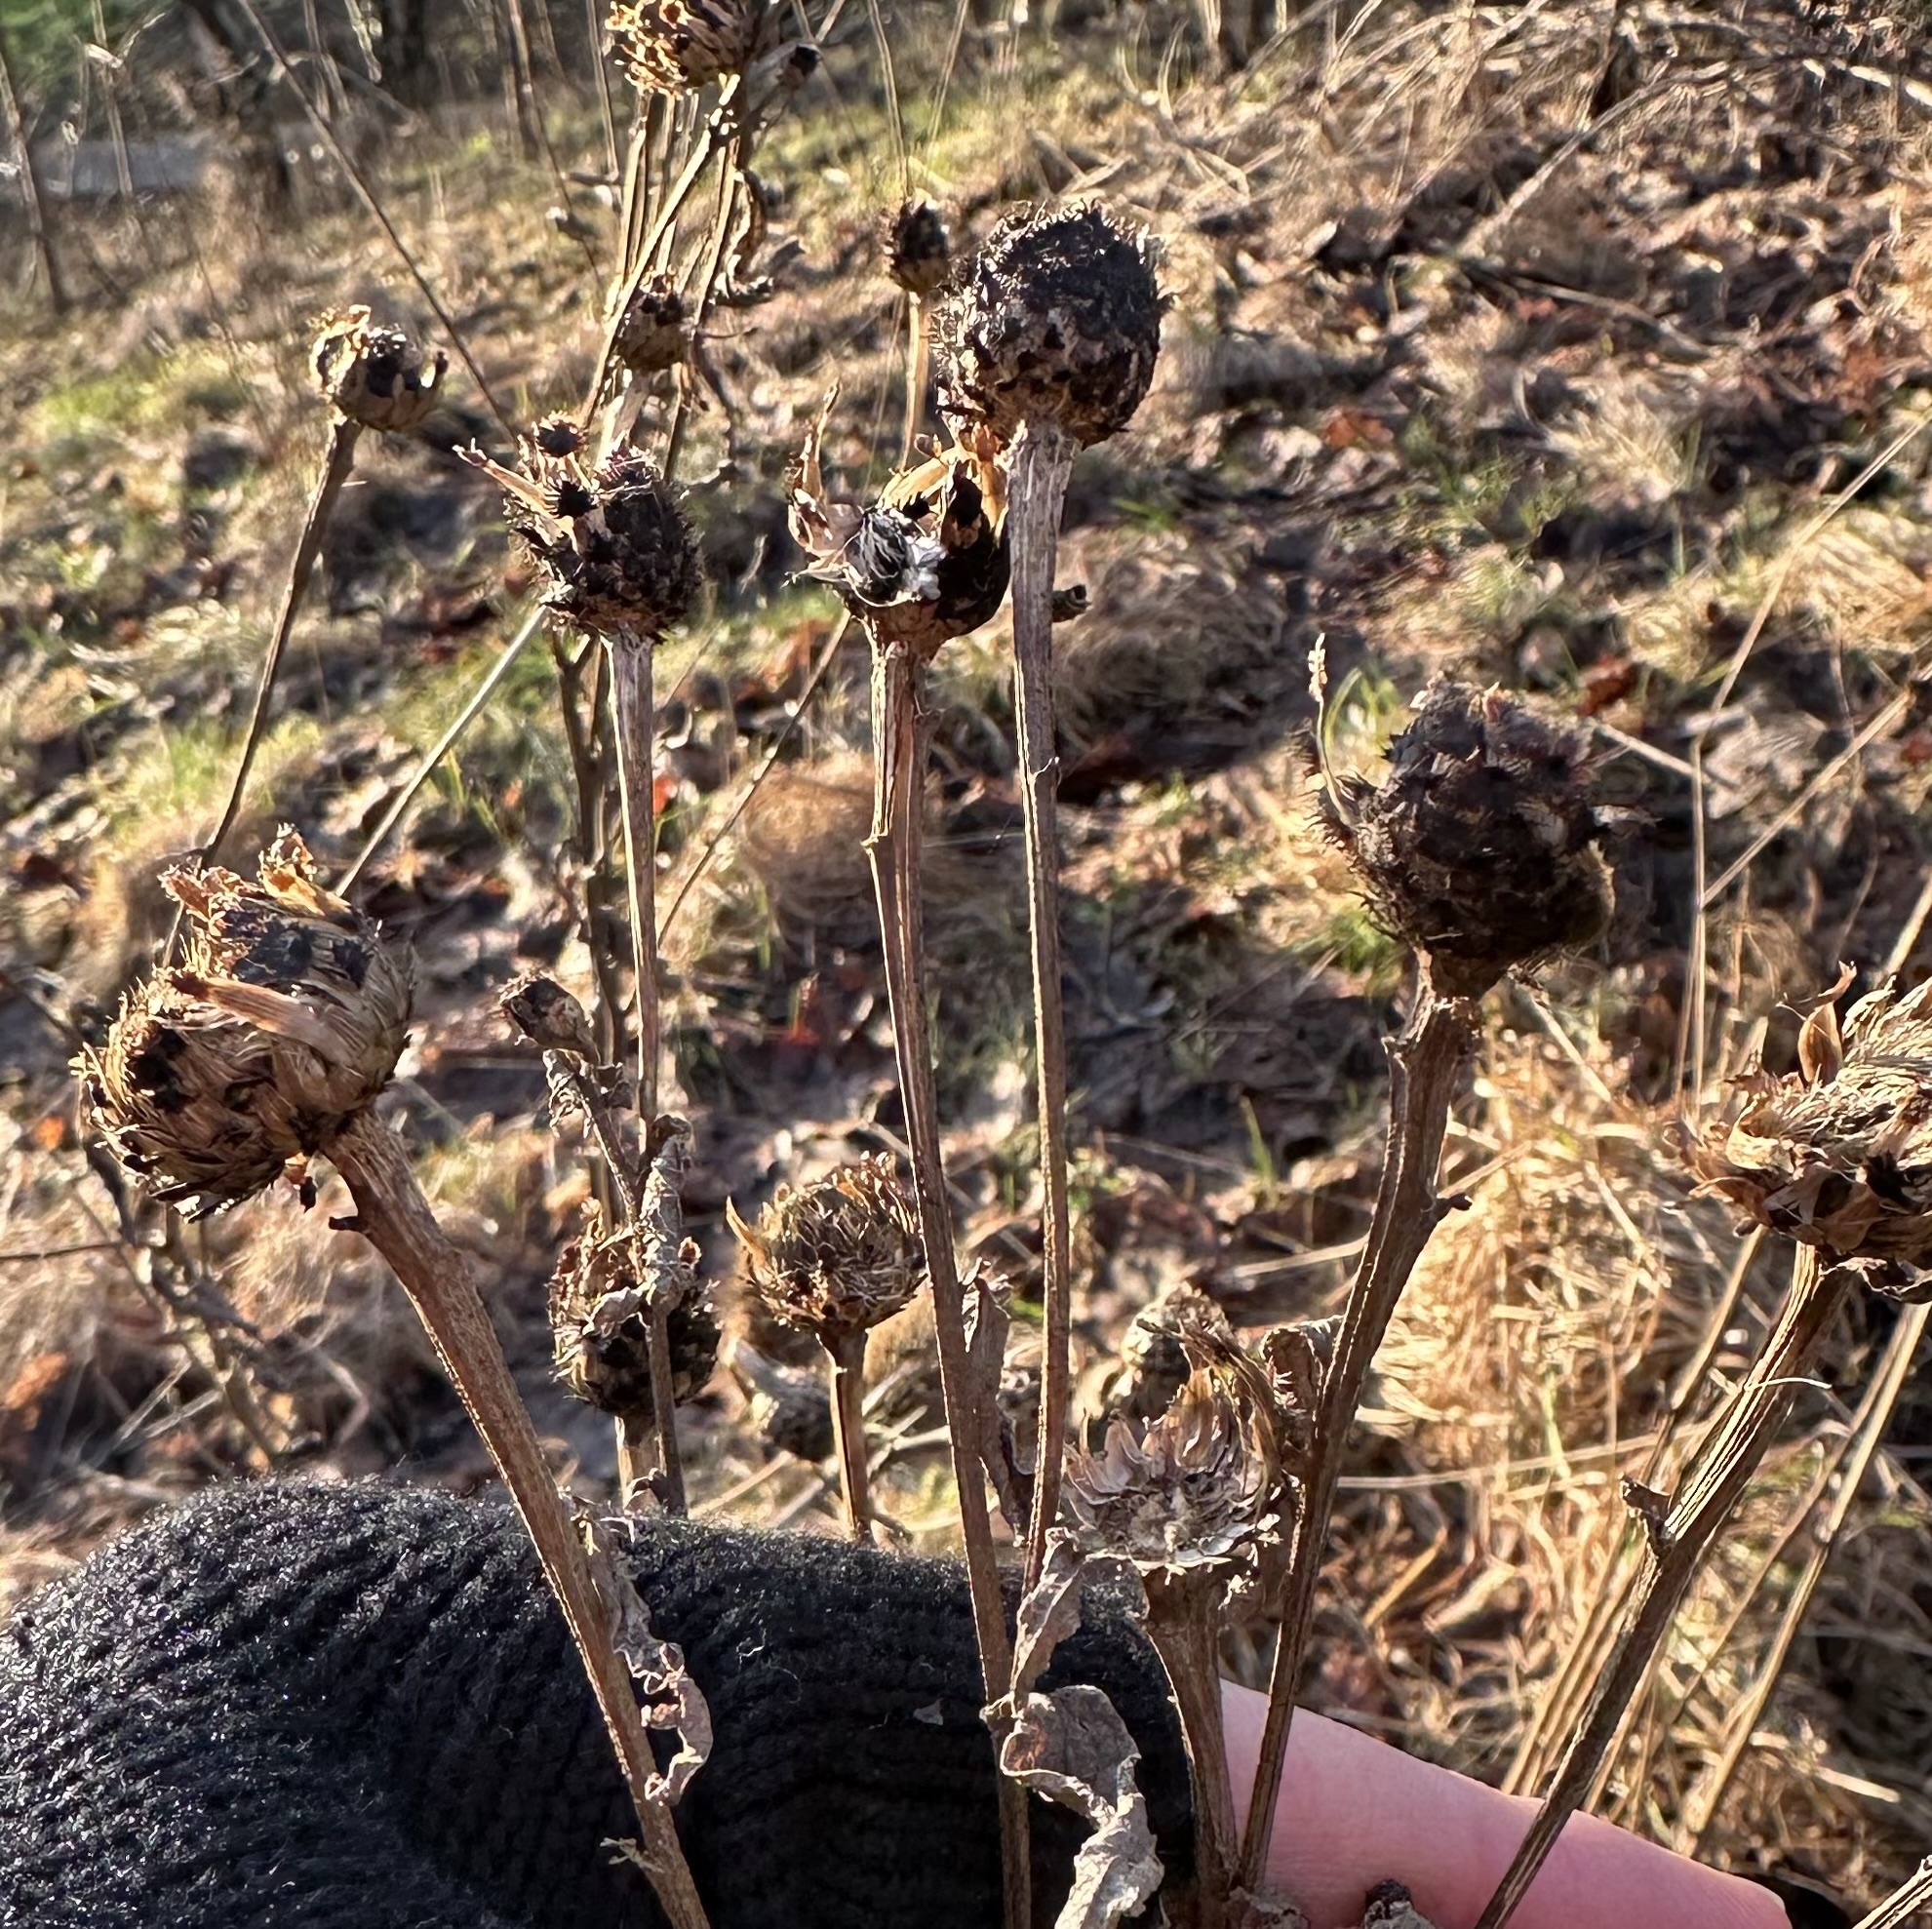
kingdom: Plantae
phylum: Tracheophyta
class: Magnoliopsida
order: Asterales
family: Asteraceae
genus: Centaurea
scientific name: Centaurea nigra
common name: Lesser knapweed
